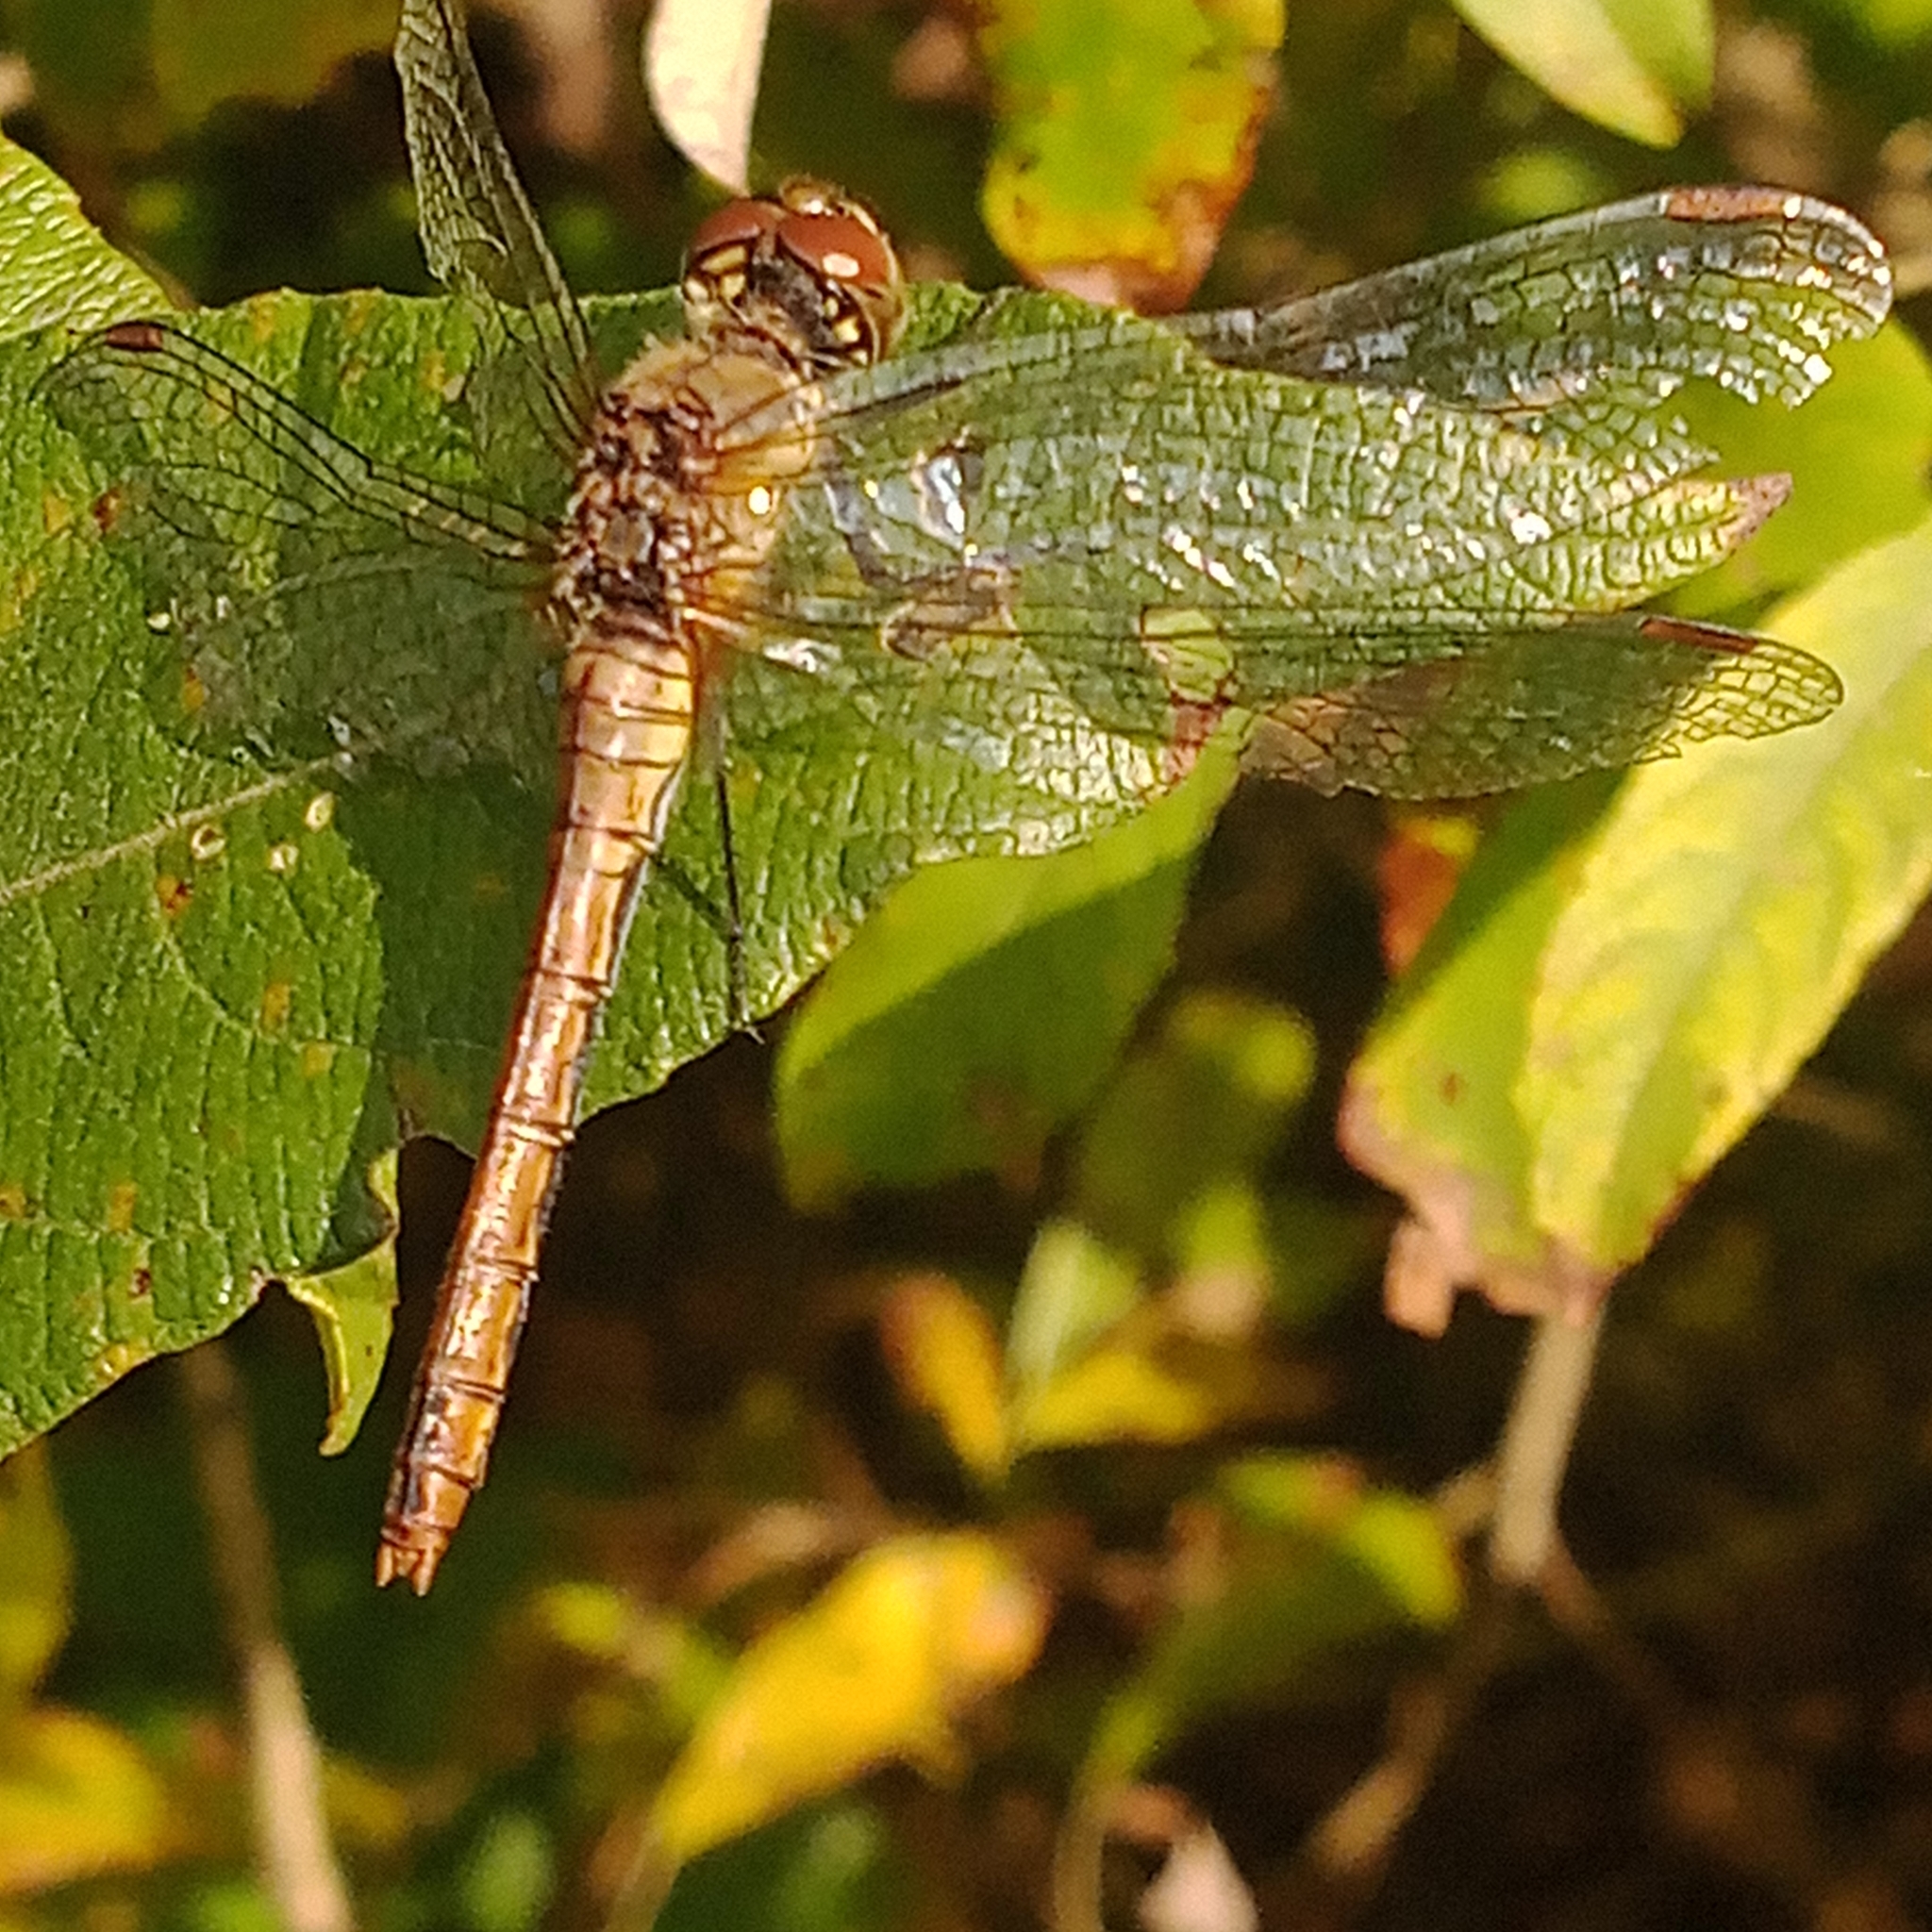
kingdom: Animalia
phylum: Arthropoda
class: Insecta
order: Odonata
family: Libellulidae
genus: Sympetrum
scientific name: Sympetrum sanguineum
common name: Ruddy darter
